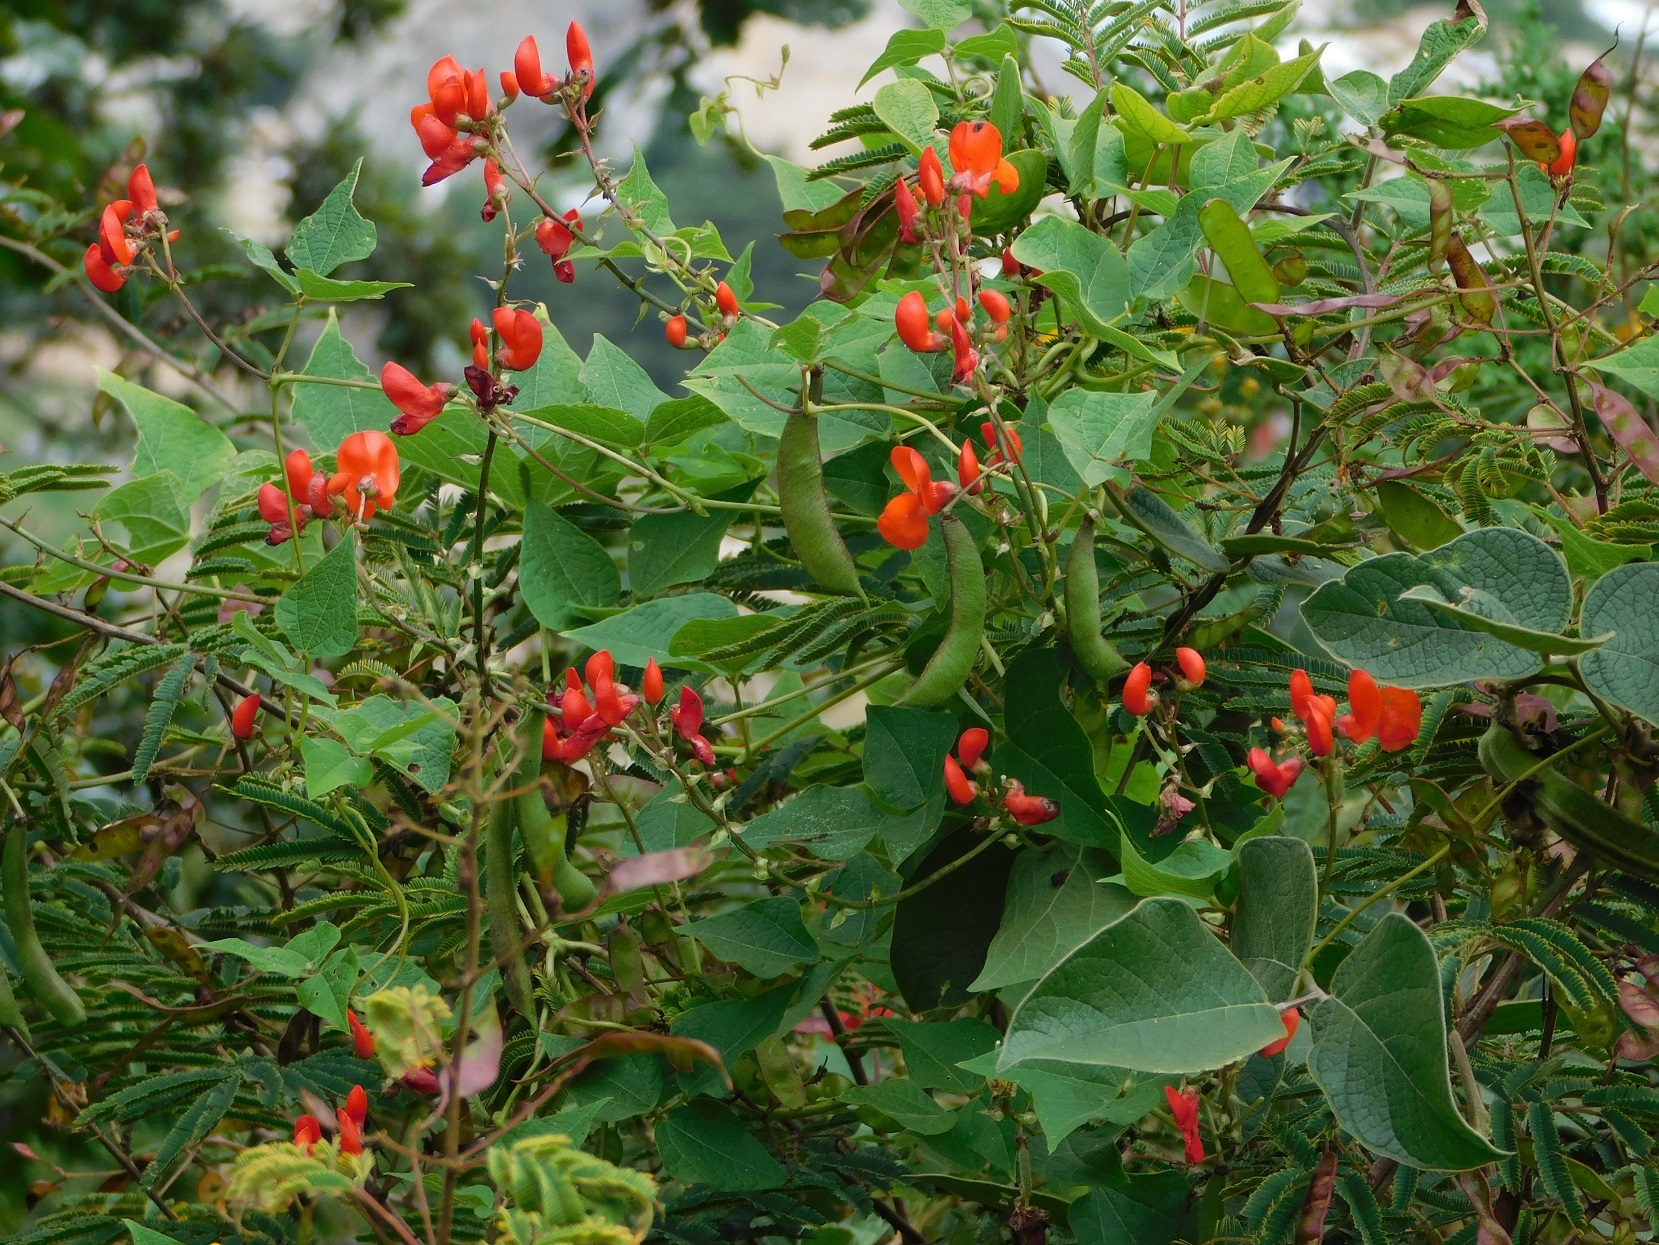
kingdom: Plantae
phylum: Tracheophyta
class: Magnoliopsida
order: Fabales
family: Fabaceae
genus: Phaseolus
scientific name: Phaseolus coccineus
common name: Runner bean
